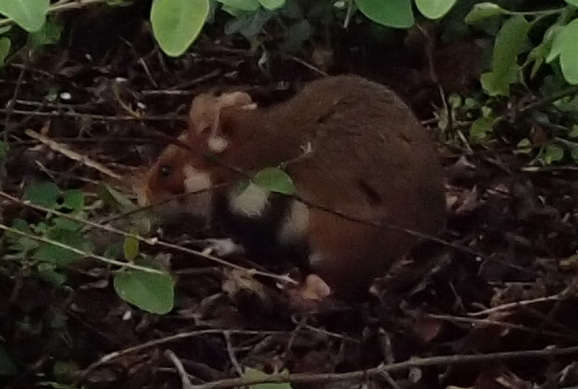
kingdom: Animalia
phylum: Chordata
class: Mammalia
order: Rodentia
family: Cricetidae
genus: Cricetus
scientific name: Cricetus cricetus
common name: Common hamster
